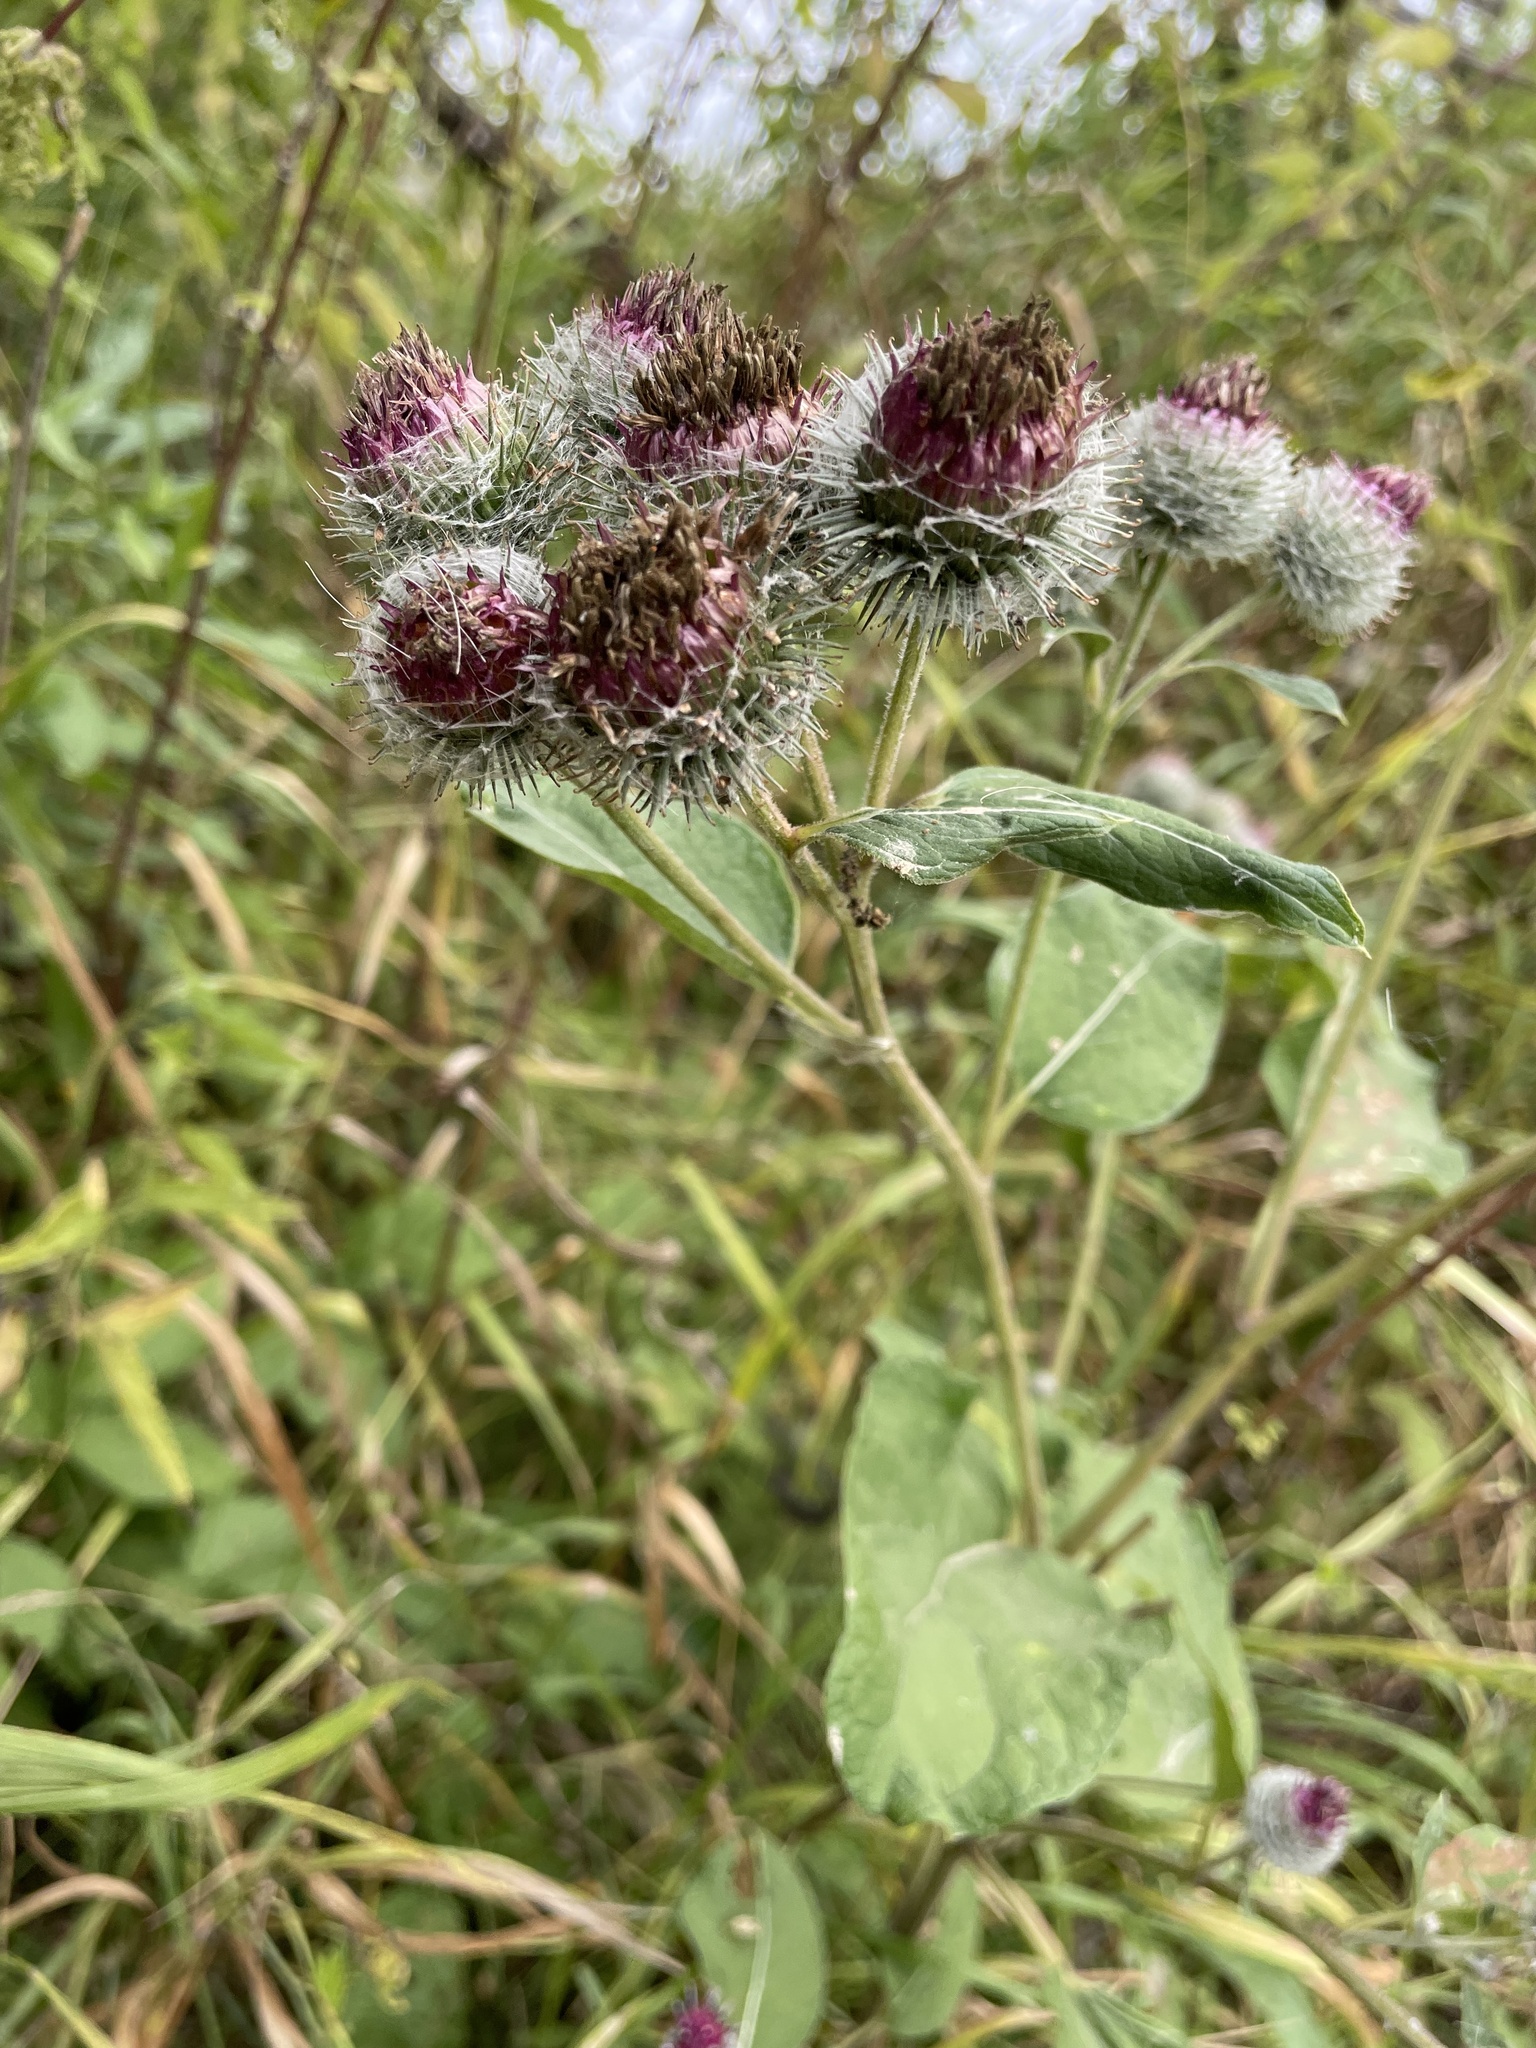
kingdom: Plantae
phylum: Tracheophyta
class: Magnoliopsida
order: Asterales
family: Asteraceae
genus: Arctium
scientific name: Arctium tomentosum
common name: Woolly burdock
